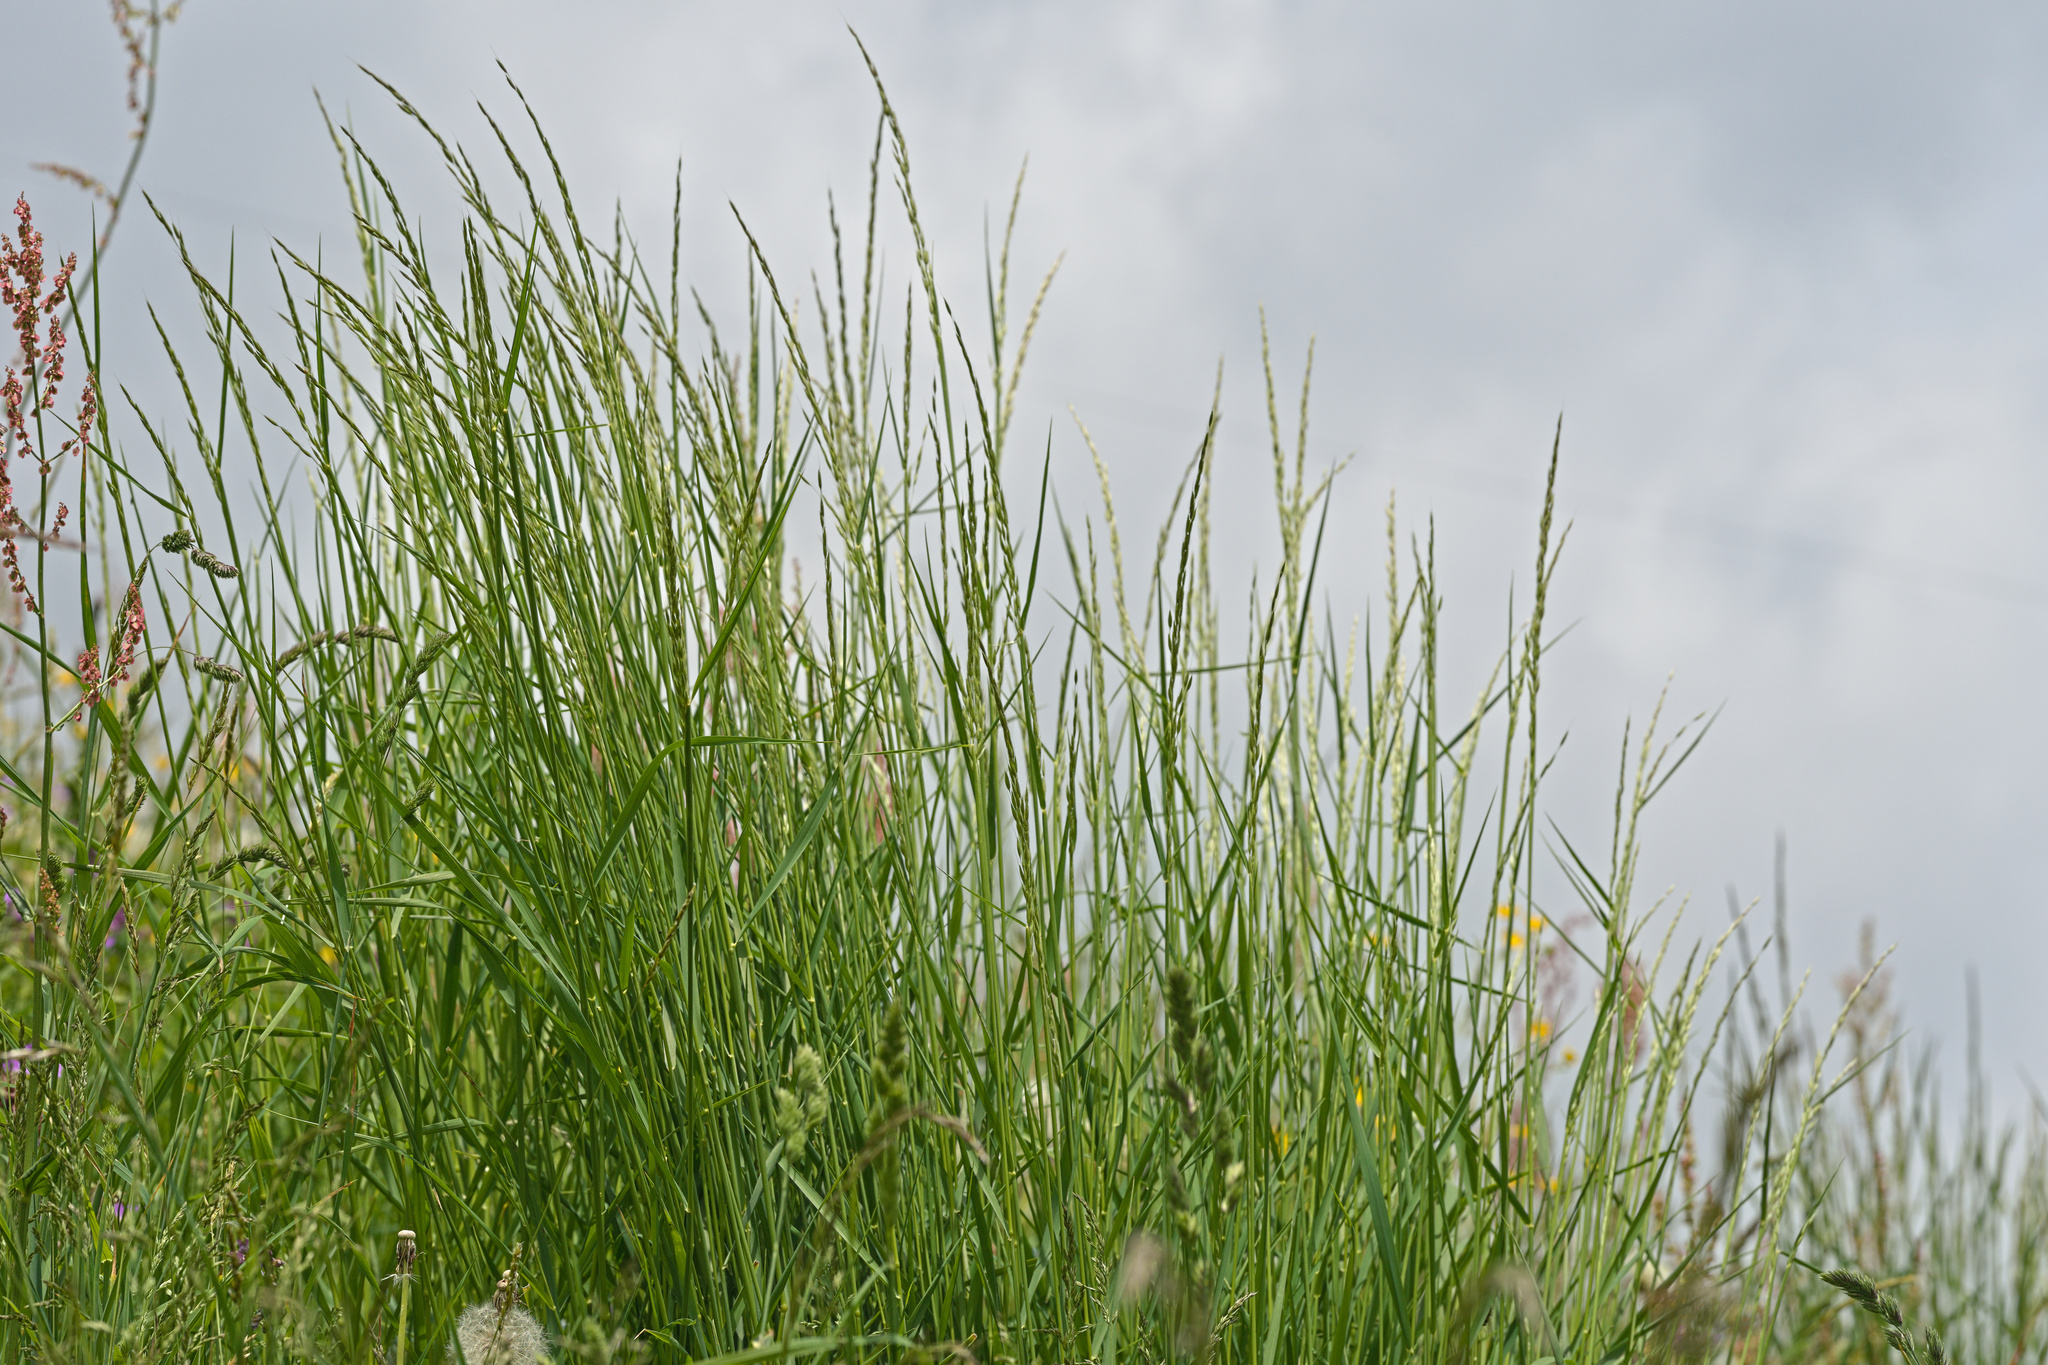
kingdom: Plantae
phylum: Tracheophyta
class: Liliopsida
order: Poales
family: Poaceae
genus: Arrhenatherum
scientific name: Arrhenatherum elatius
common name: Tall oatgrass
